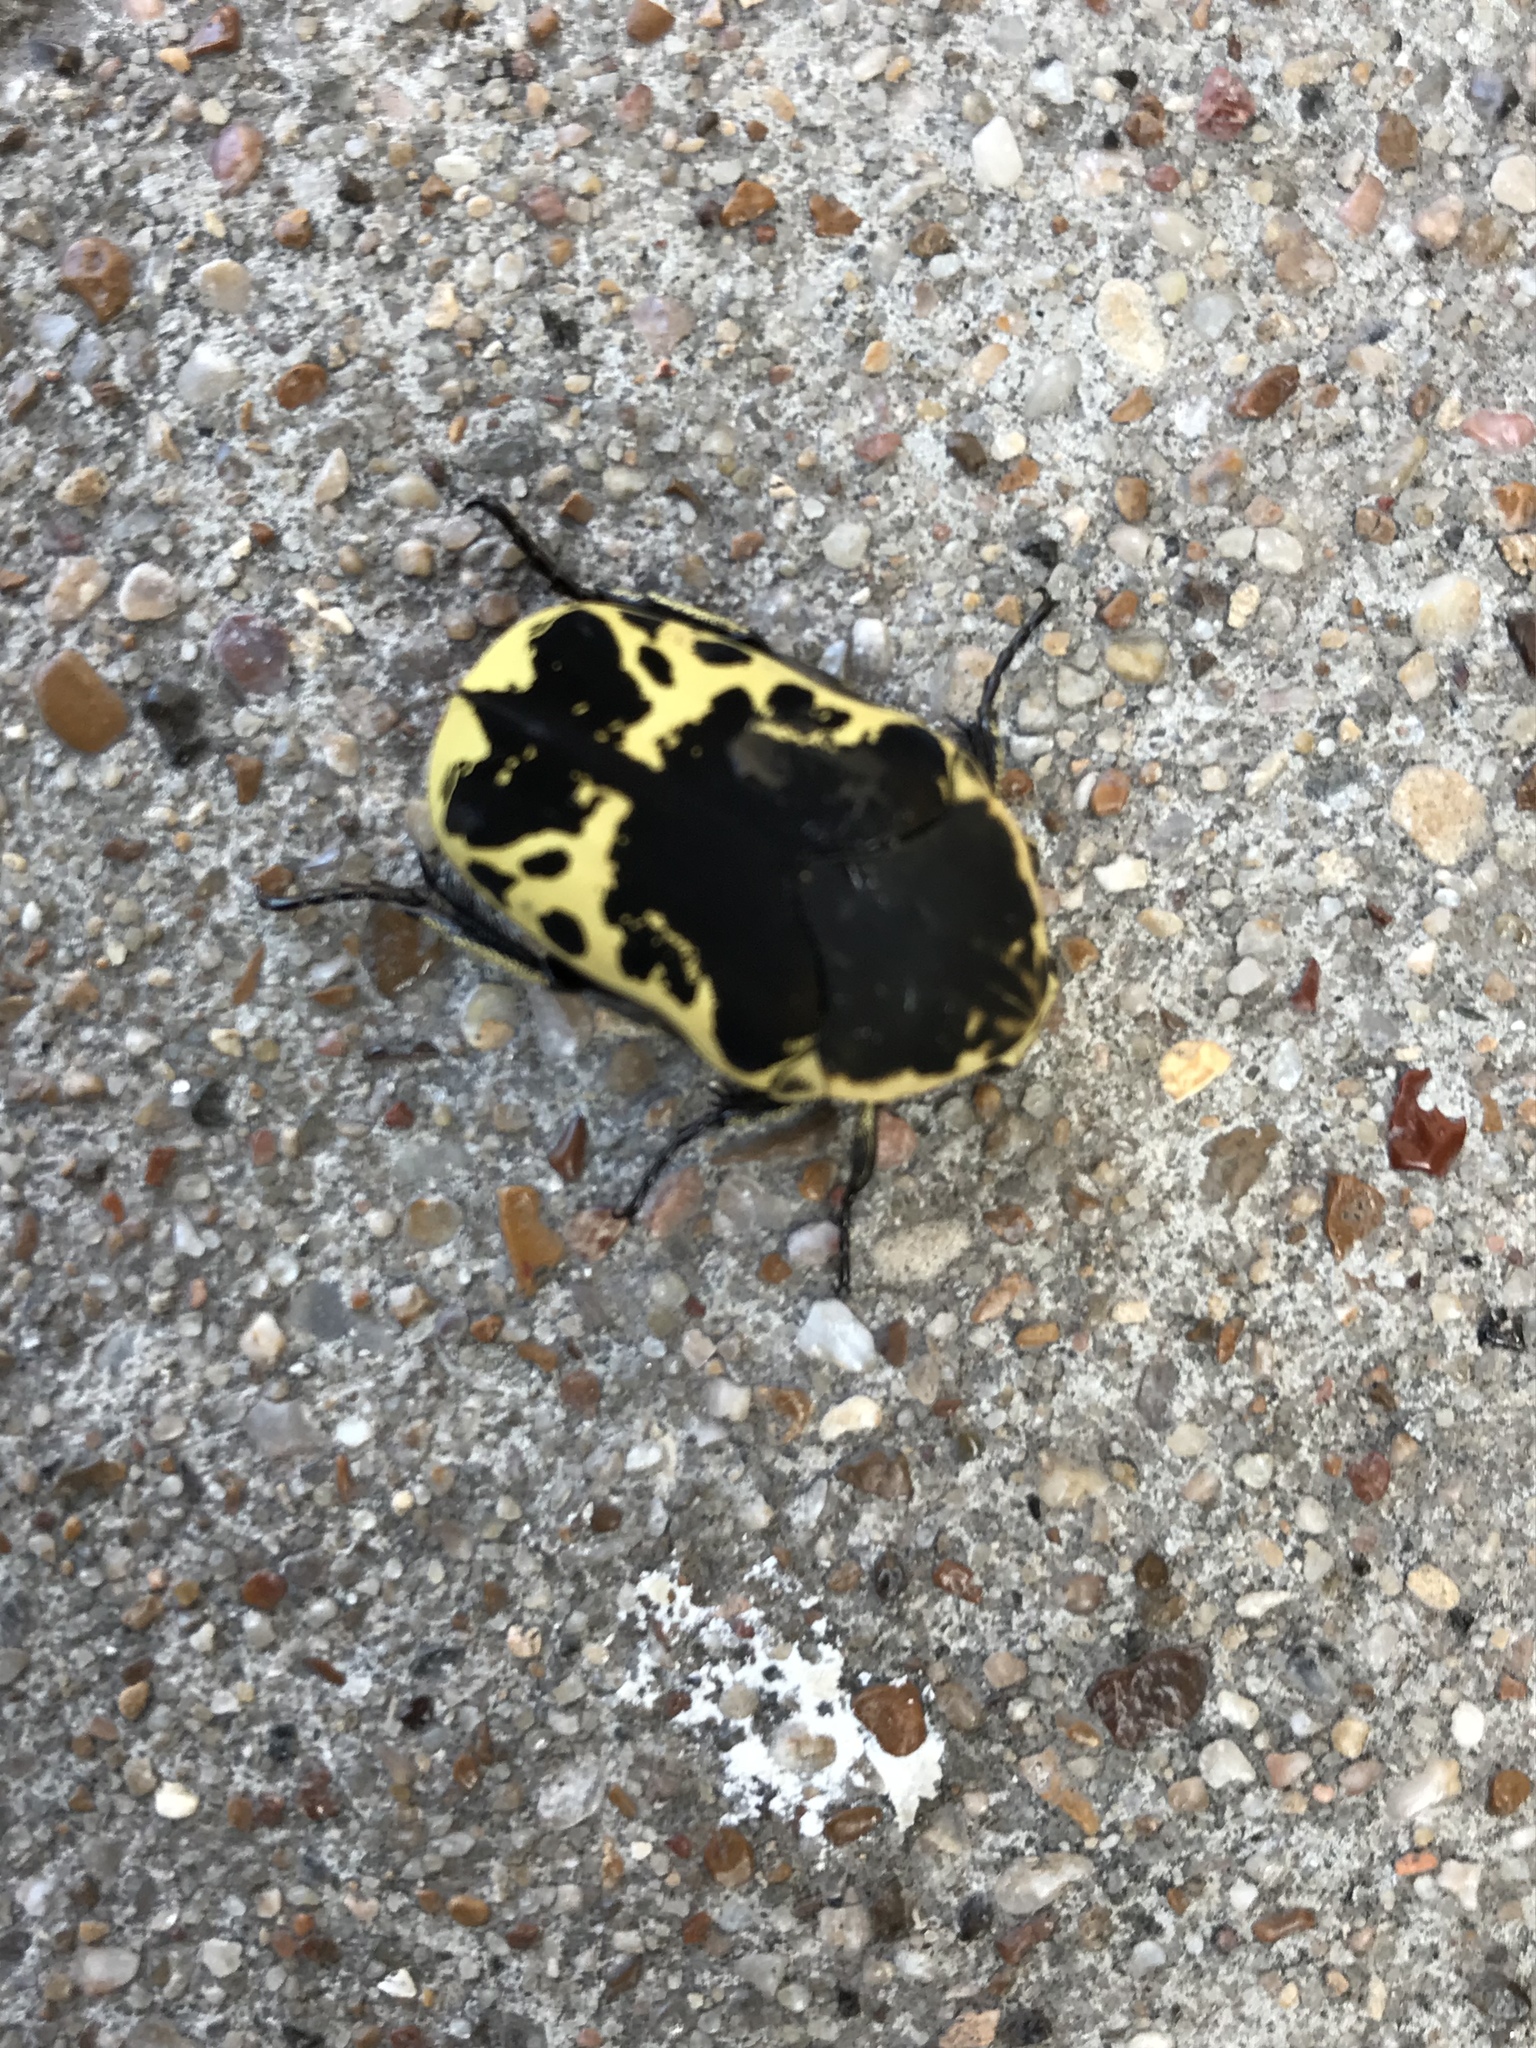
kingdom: Animalia
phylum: Arthropoda
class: Insecta
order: Coleoptera
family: Scarabaeidae
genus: Gymnetis
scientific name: Gymnetis thula
